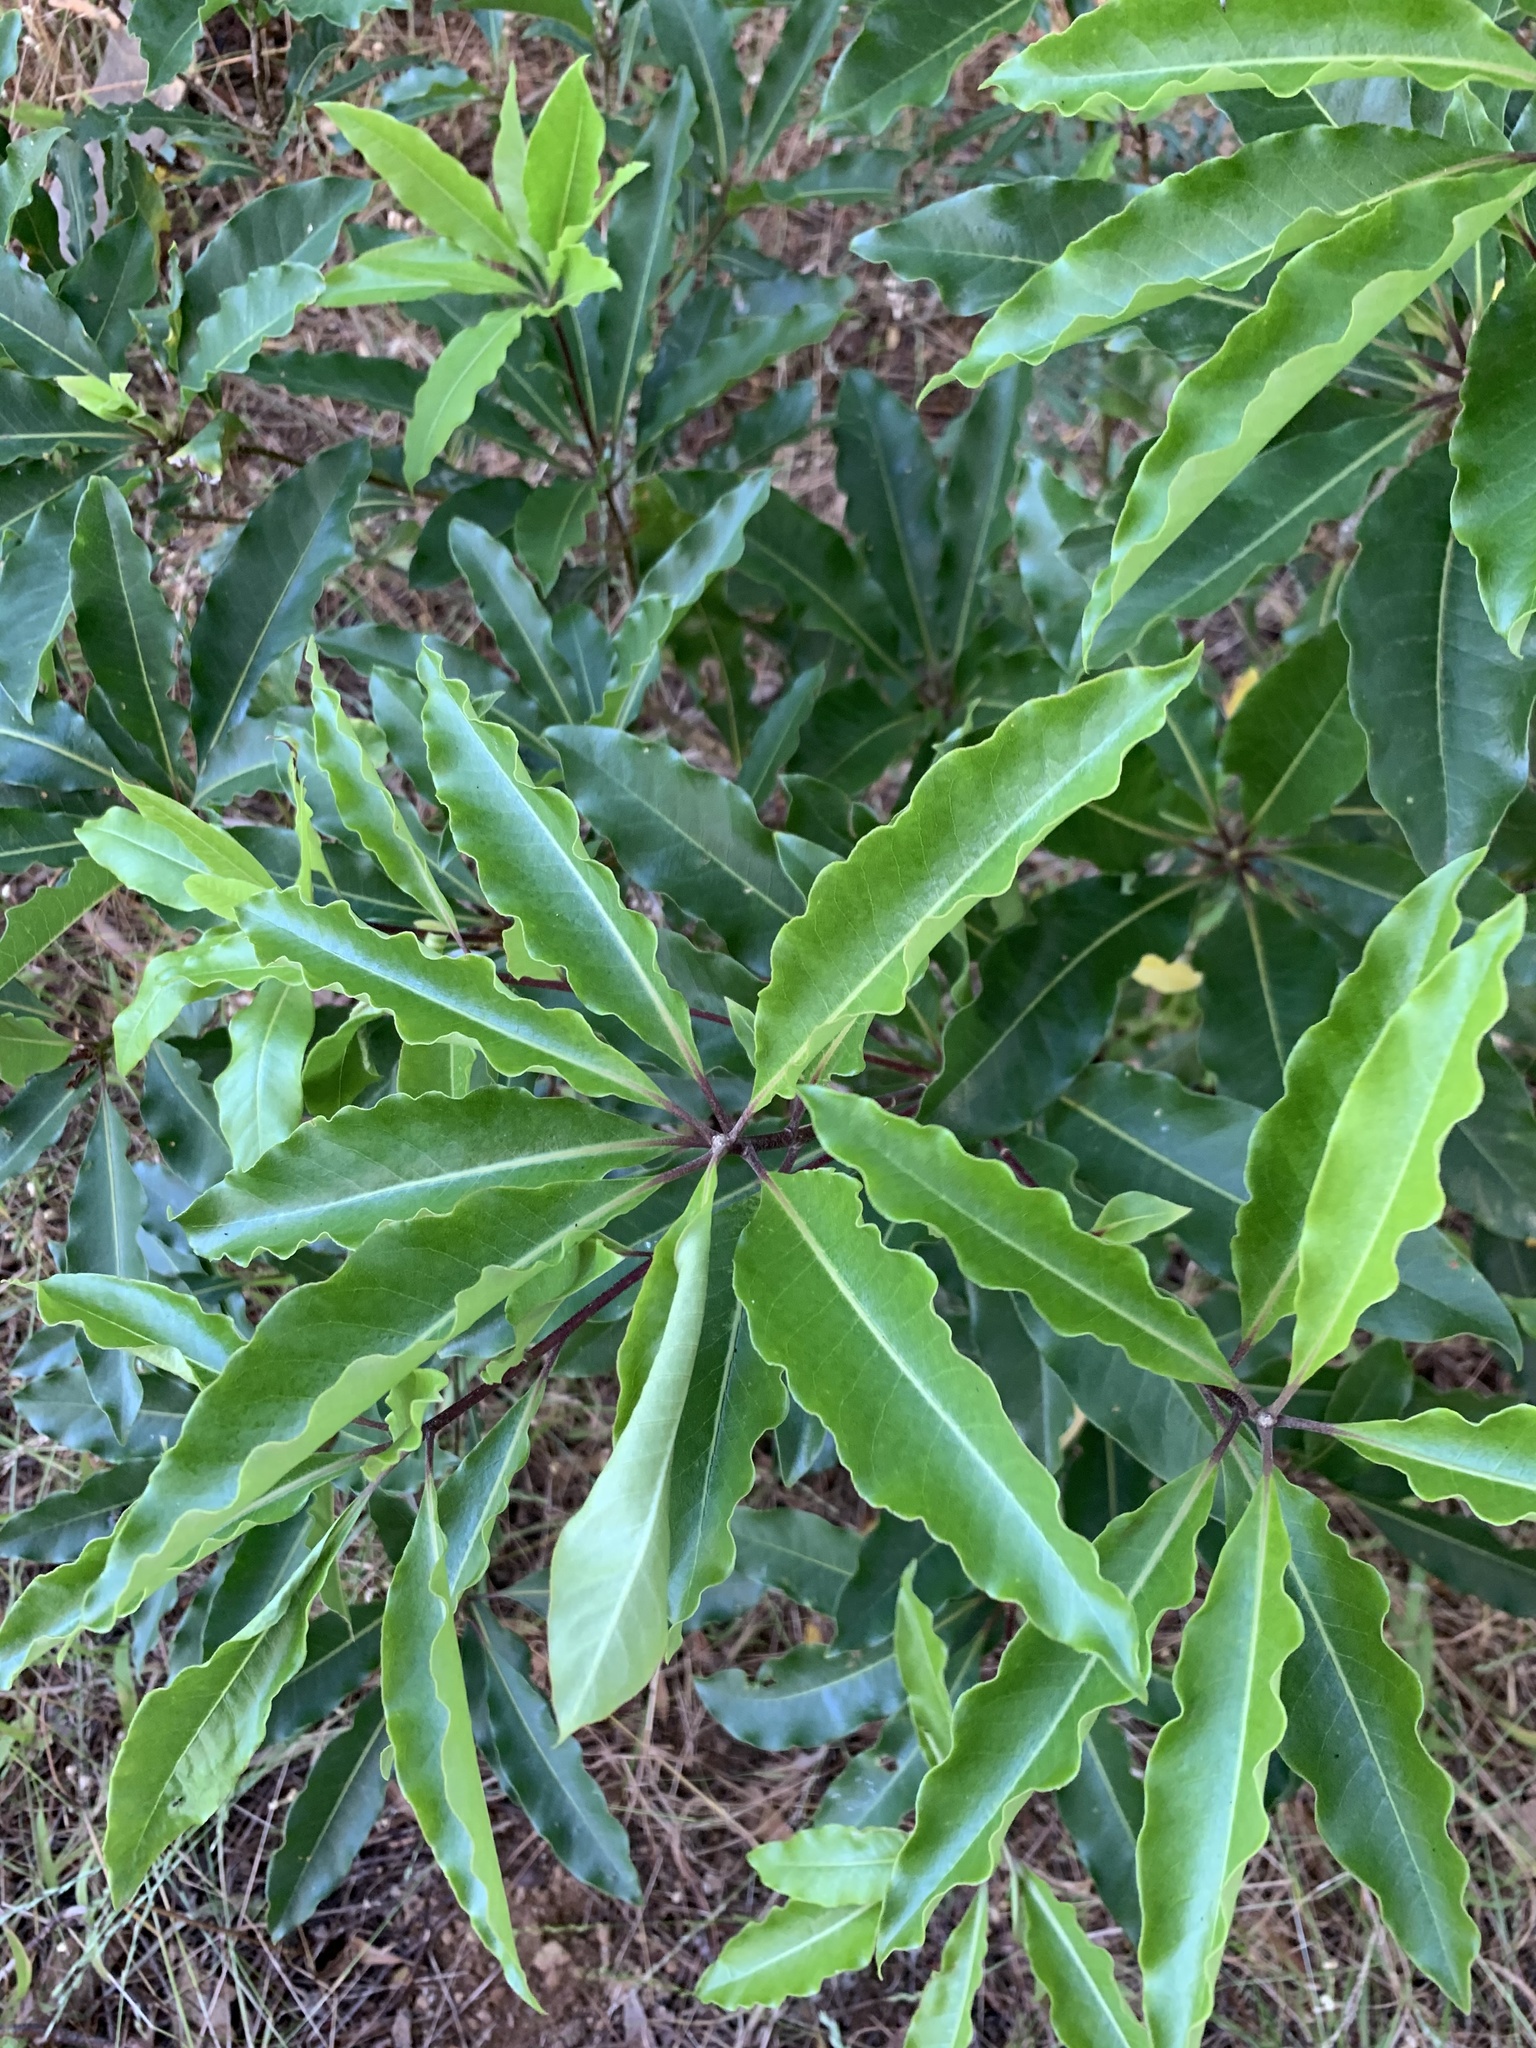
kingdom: Plantae
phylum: Tracheophyta
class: Magnoliopsida
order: Apiales
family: Pittosporaceae
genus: Pittosporum
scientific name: Pittosporum undulatum
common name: Australian cheesewood
